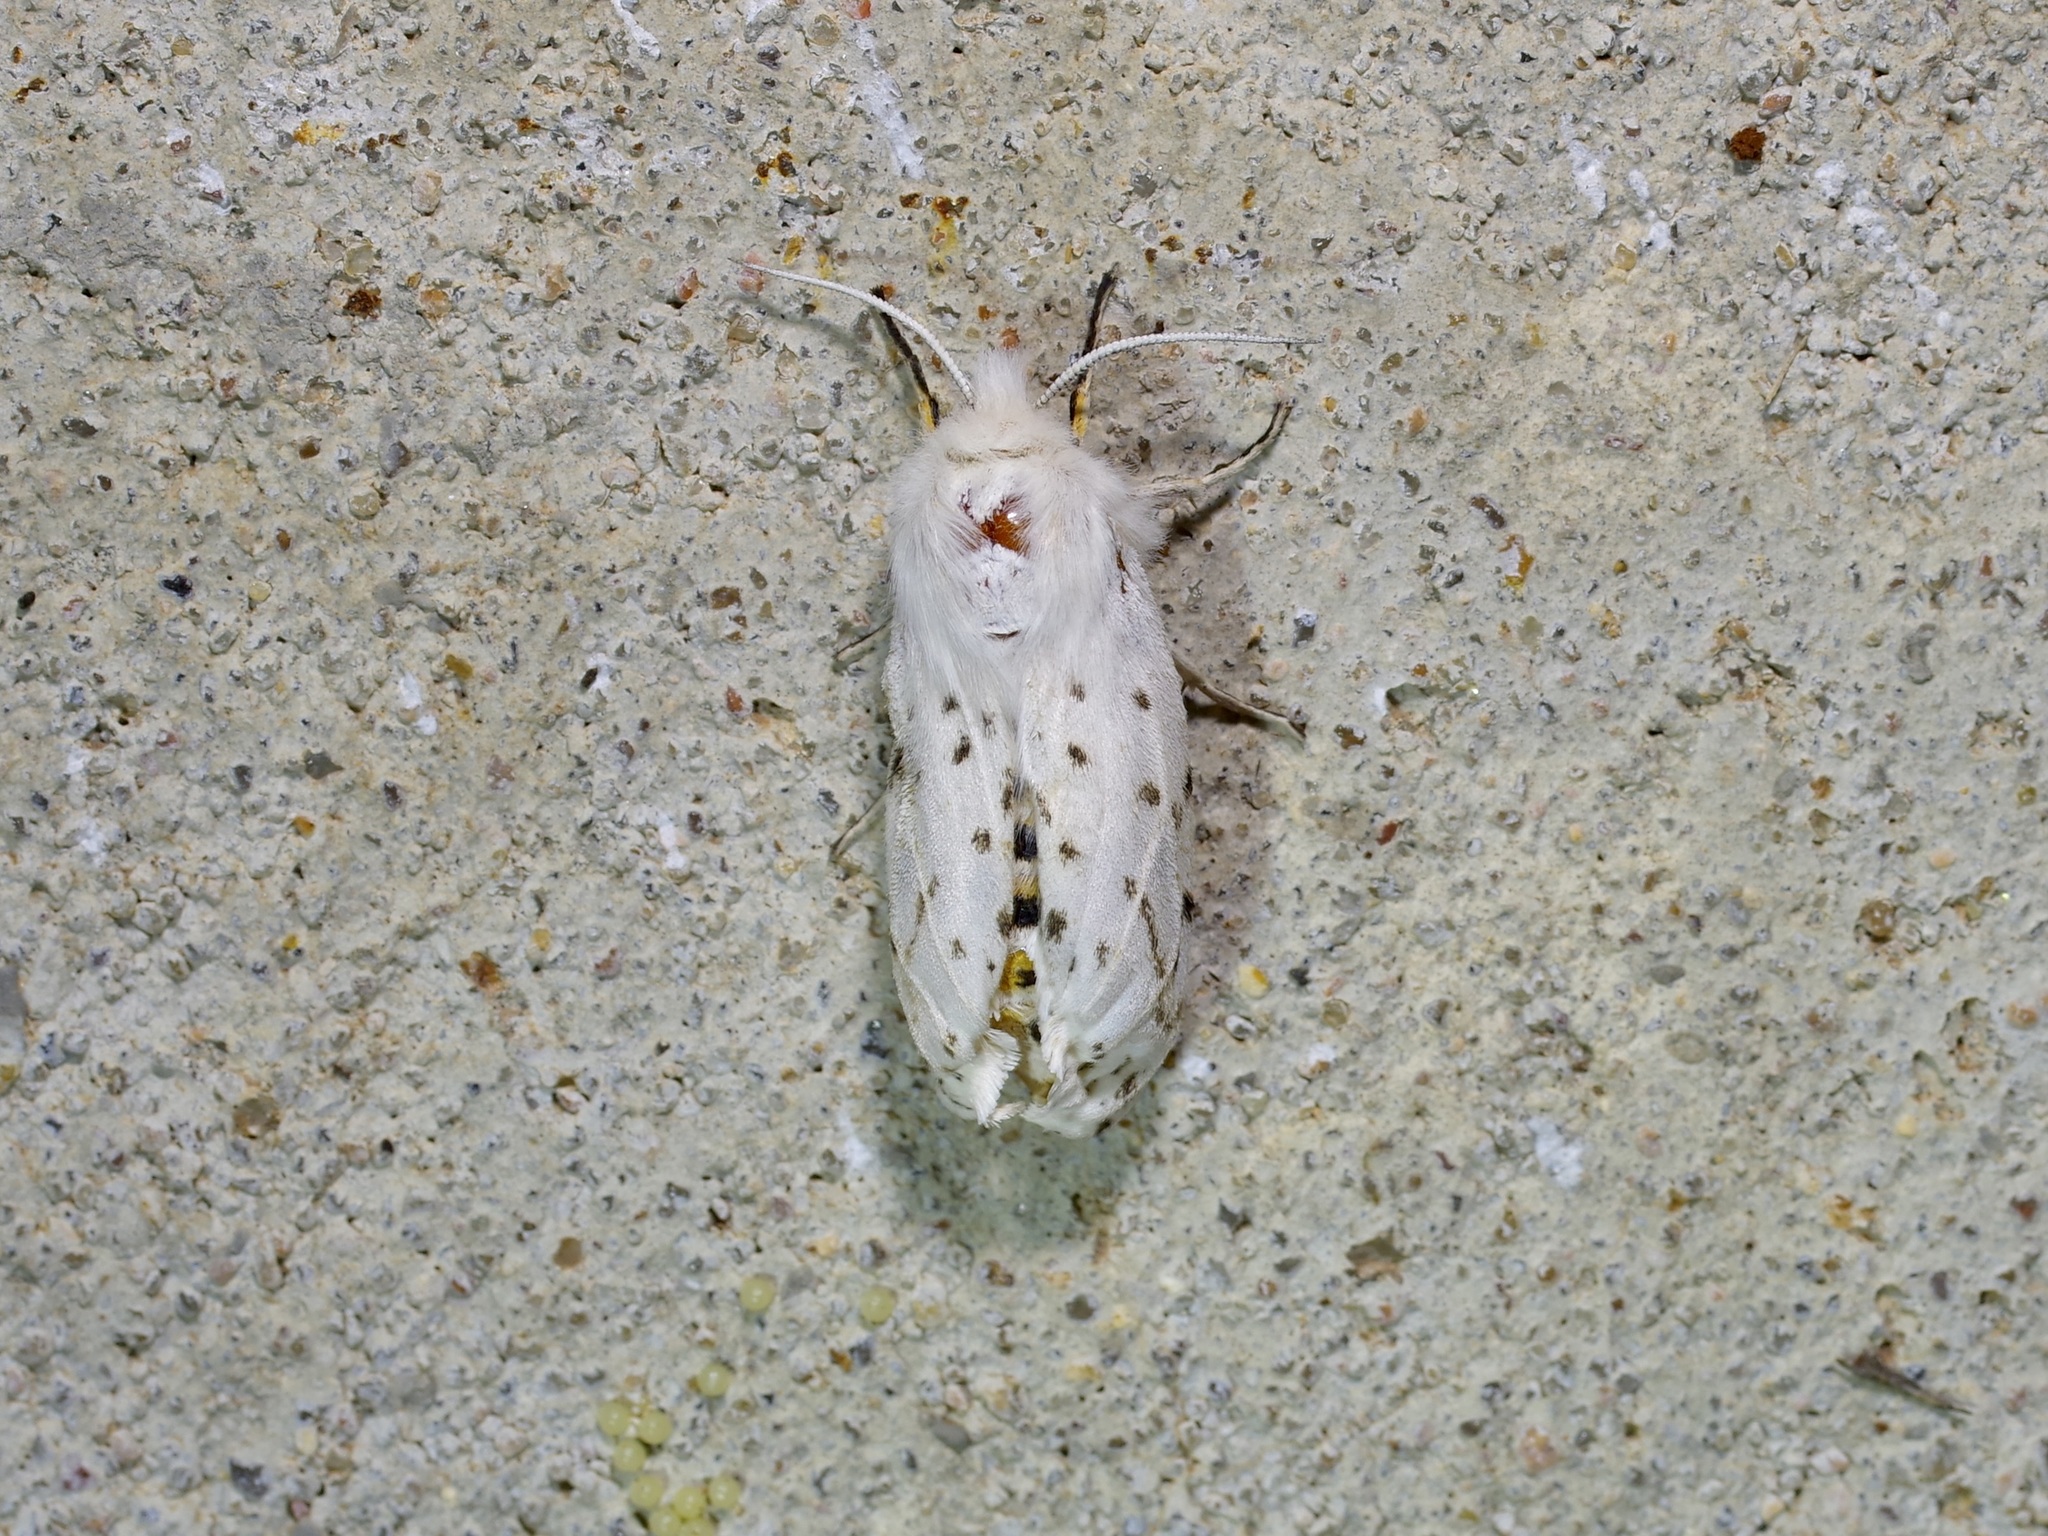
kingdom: Animalia
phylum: Arthropoda
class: Insecta
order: Lepidoptera
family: Erebidae
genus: Spilosoma
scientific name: Spilosoma dubia
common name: Dubious tiger moth
